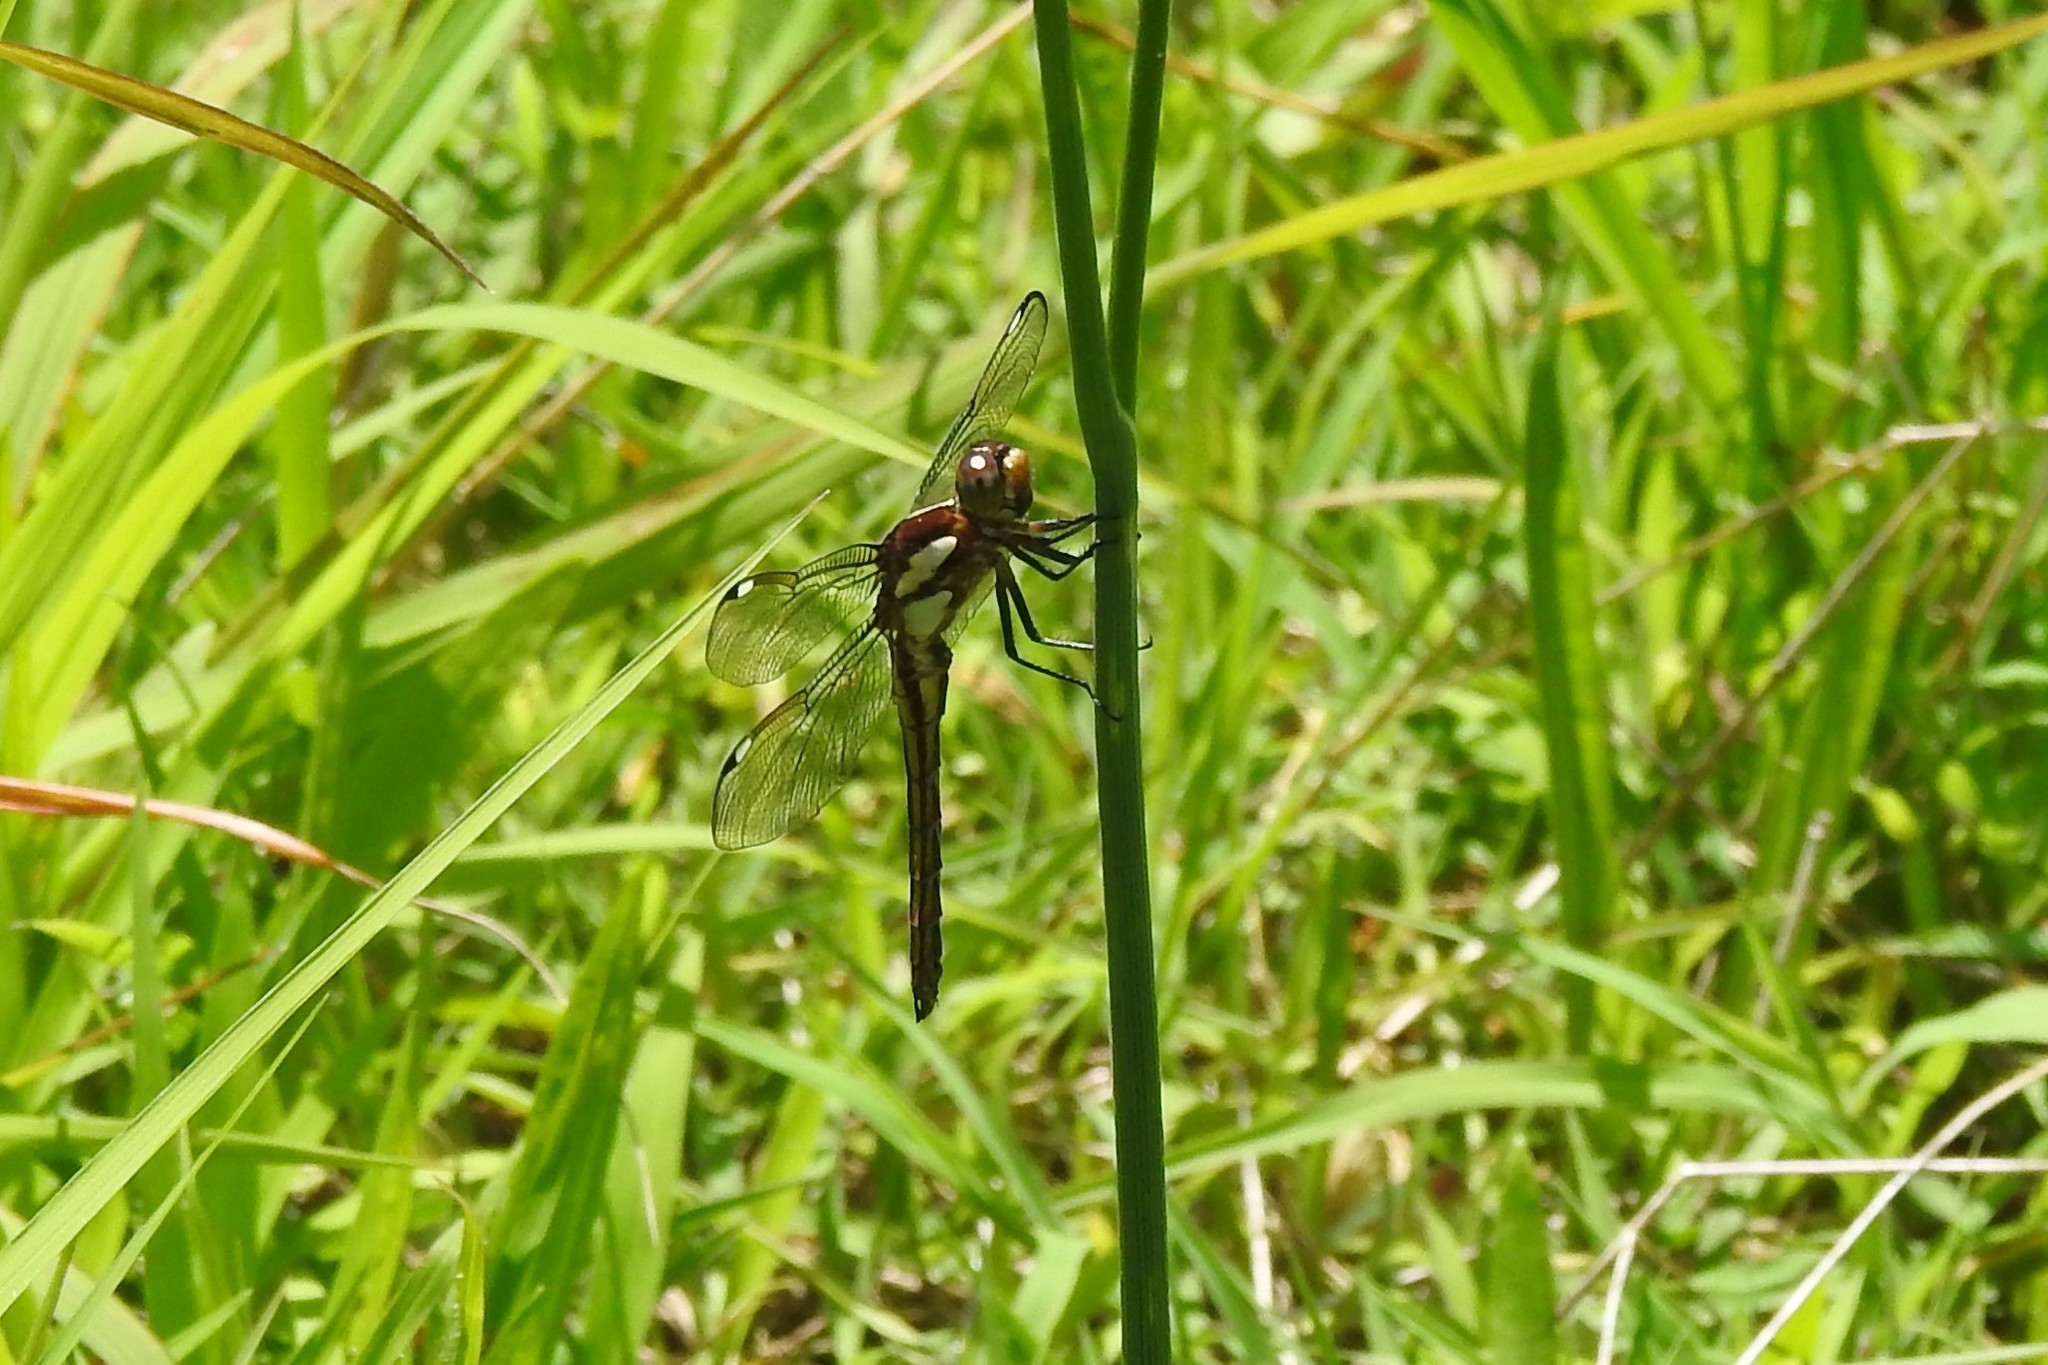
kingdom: Animalia
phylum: Arthropoda
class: Insecta
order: Odonata
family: Libellulidae
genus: Libellula
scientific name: Libellula cyanea
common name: Spangled skimmer
